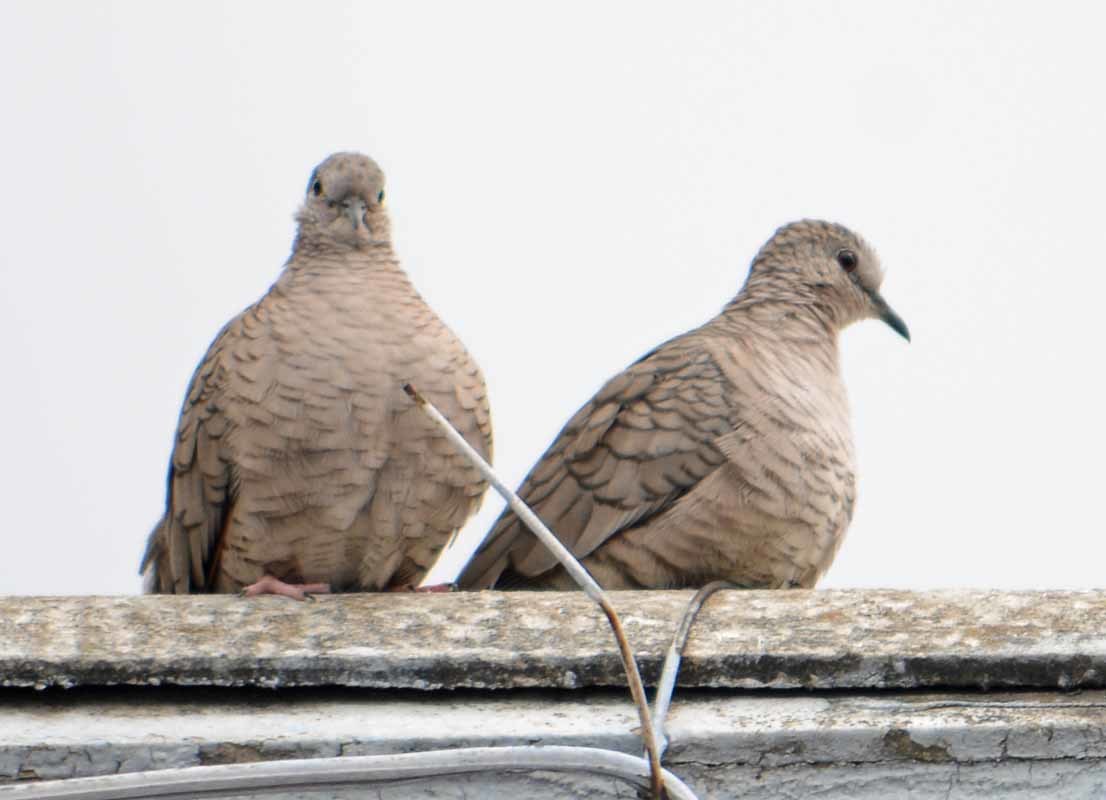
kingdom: Animalia
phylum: Chordata
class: Aves
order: Columbiformes
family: Columbidae
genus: Columbina
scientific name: Columbina inca
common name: Inca dove
